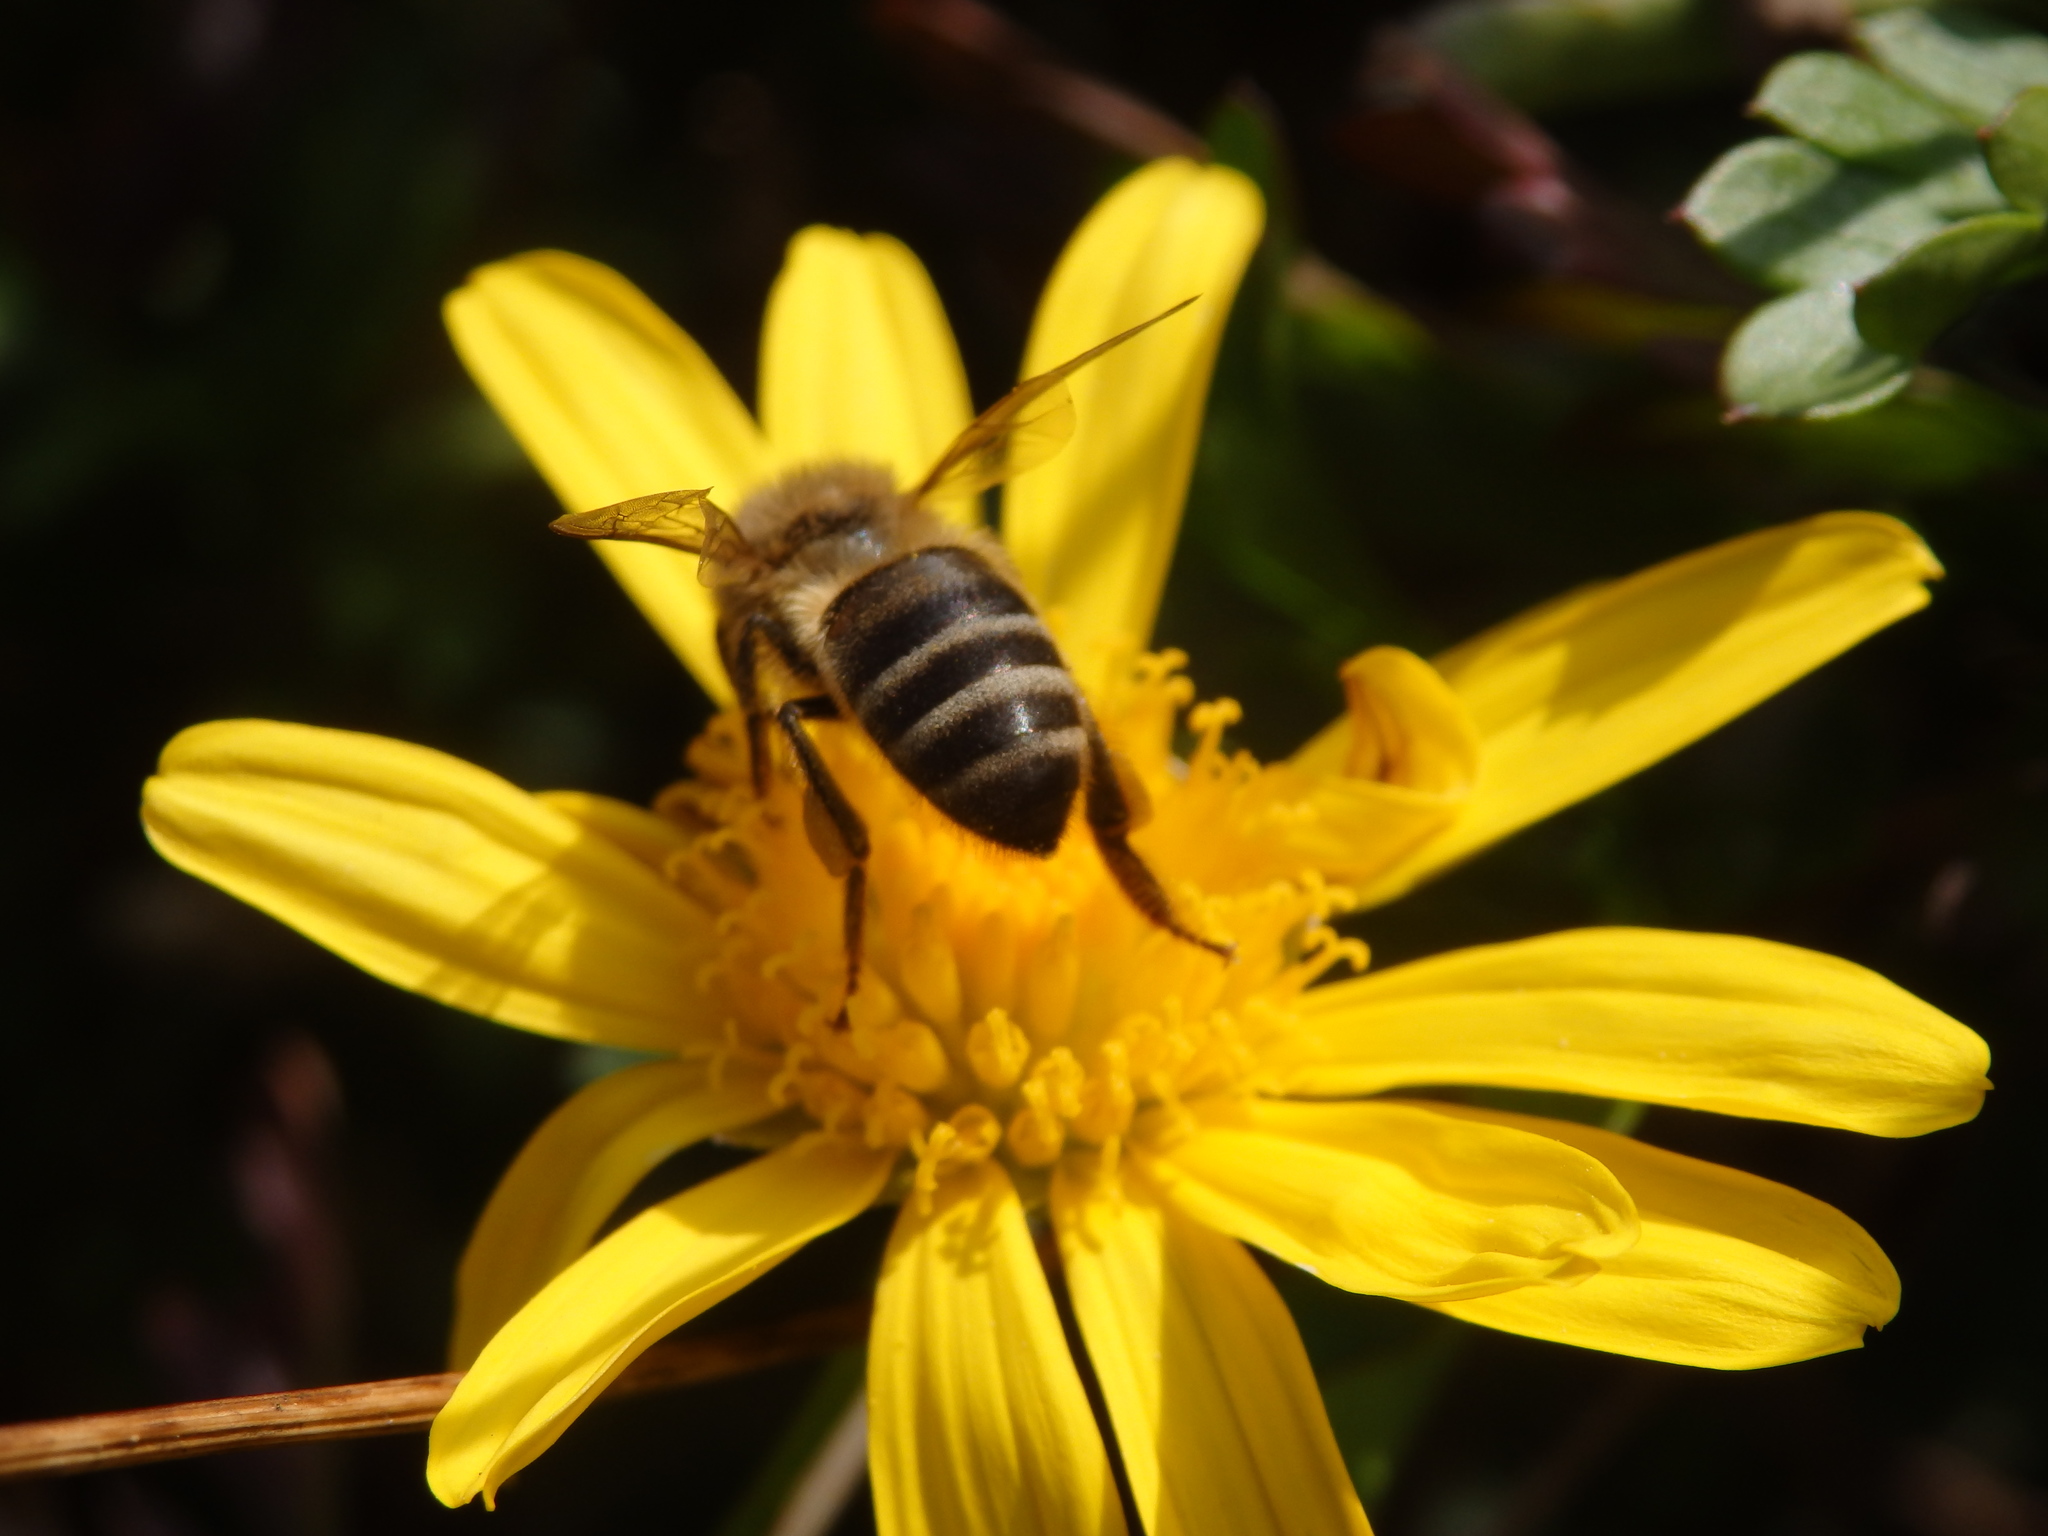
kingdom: Animalia
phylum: Arthropoda
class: Insecta
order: Hymenoptera
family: Apidae
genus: Apis
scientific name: Apis mellifera
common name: Honey bee
